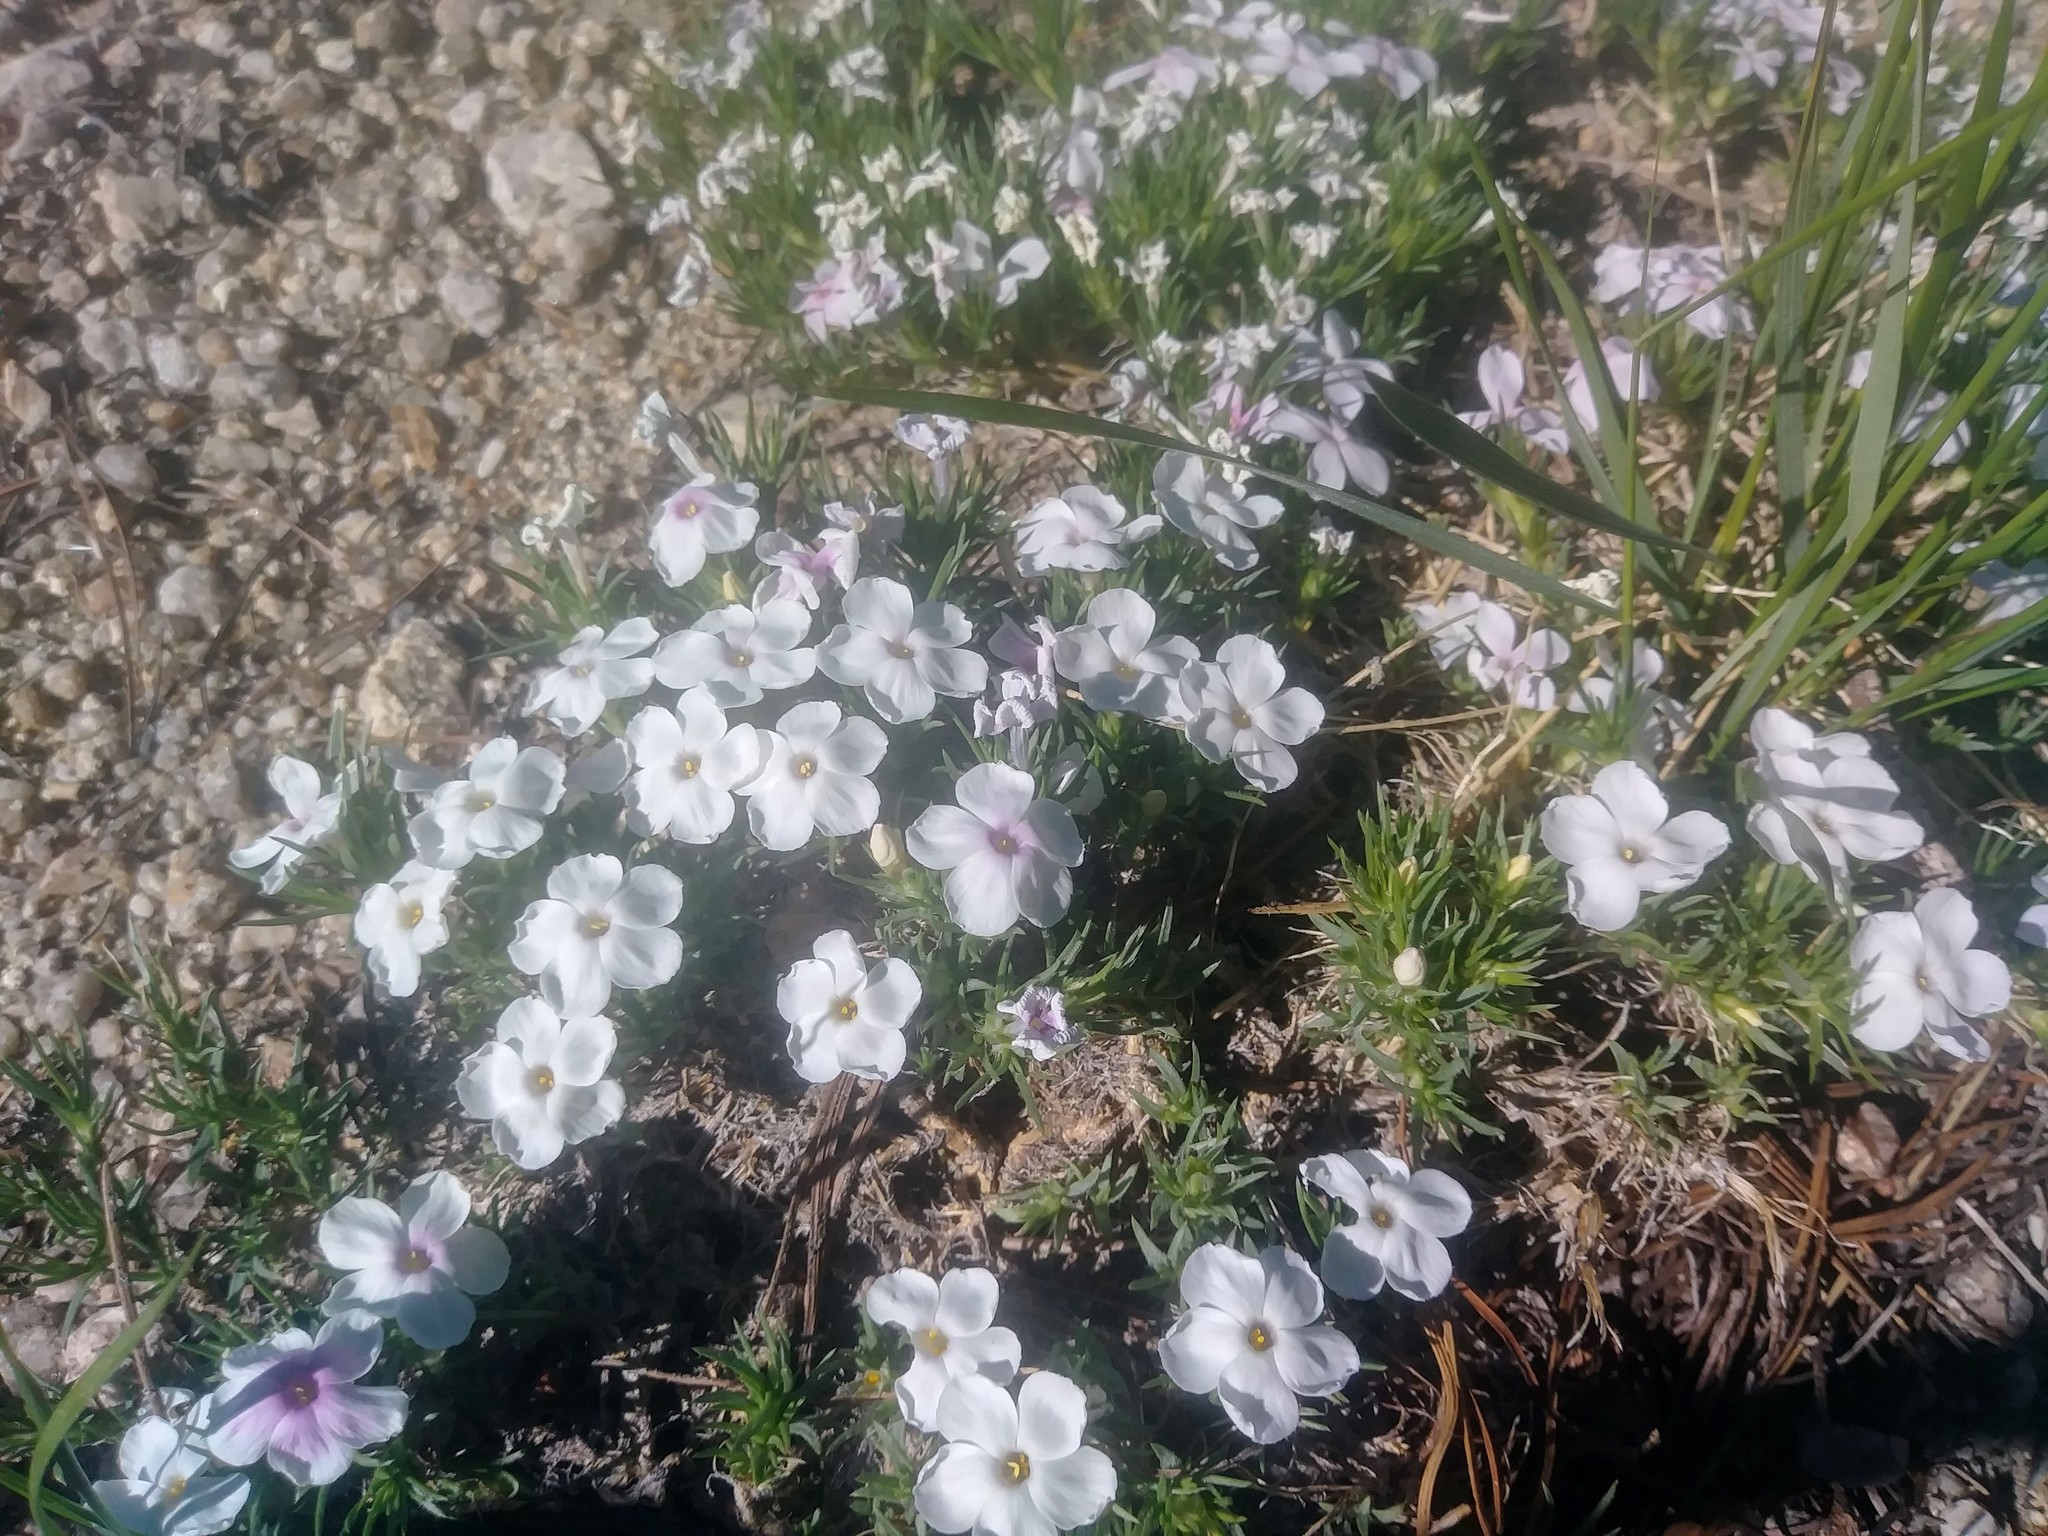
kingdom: Plantae
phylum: Tracheophyta
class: Magnoliopsida
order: Ericales
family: Polemoniaceae
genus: Phlox
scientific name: Phlox diffusa
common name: Mat phlox
